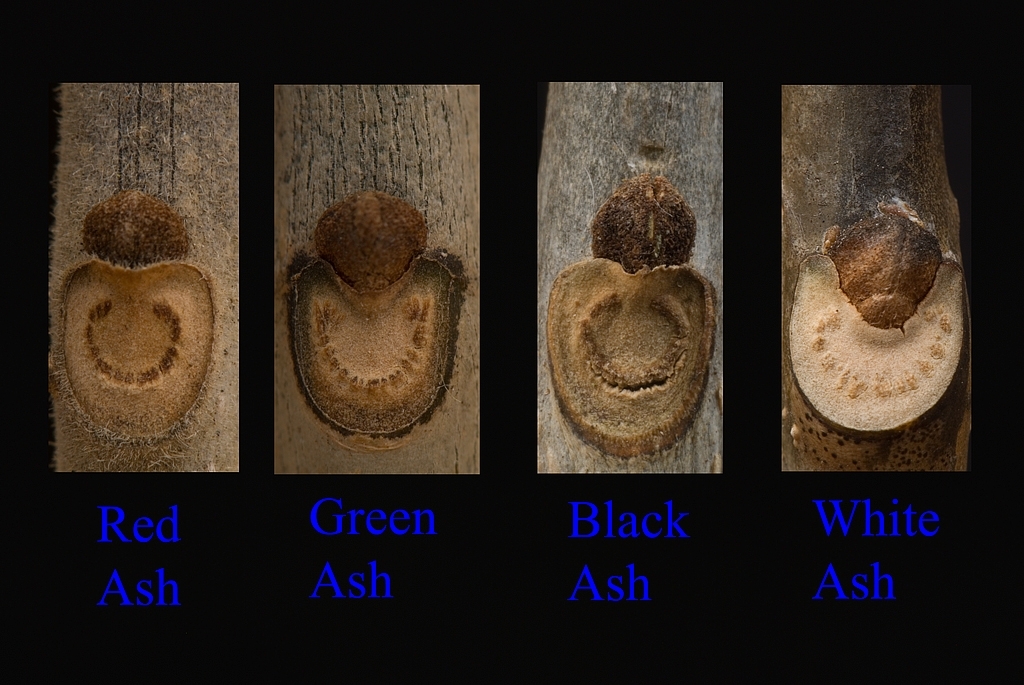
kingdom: Plantae
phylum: Tracheophyta
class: Magnoliopsida
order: Lamiales
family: Oleaceae
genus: Fraxinus
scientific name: Fraxinus pennsylvanica
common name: Green ash
